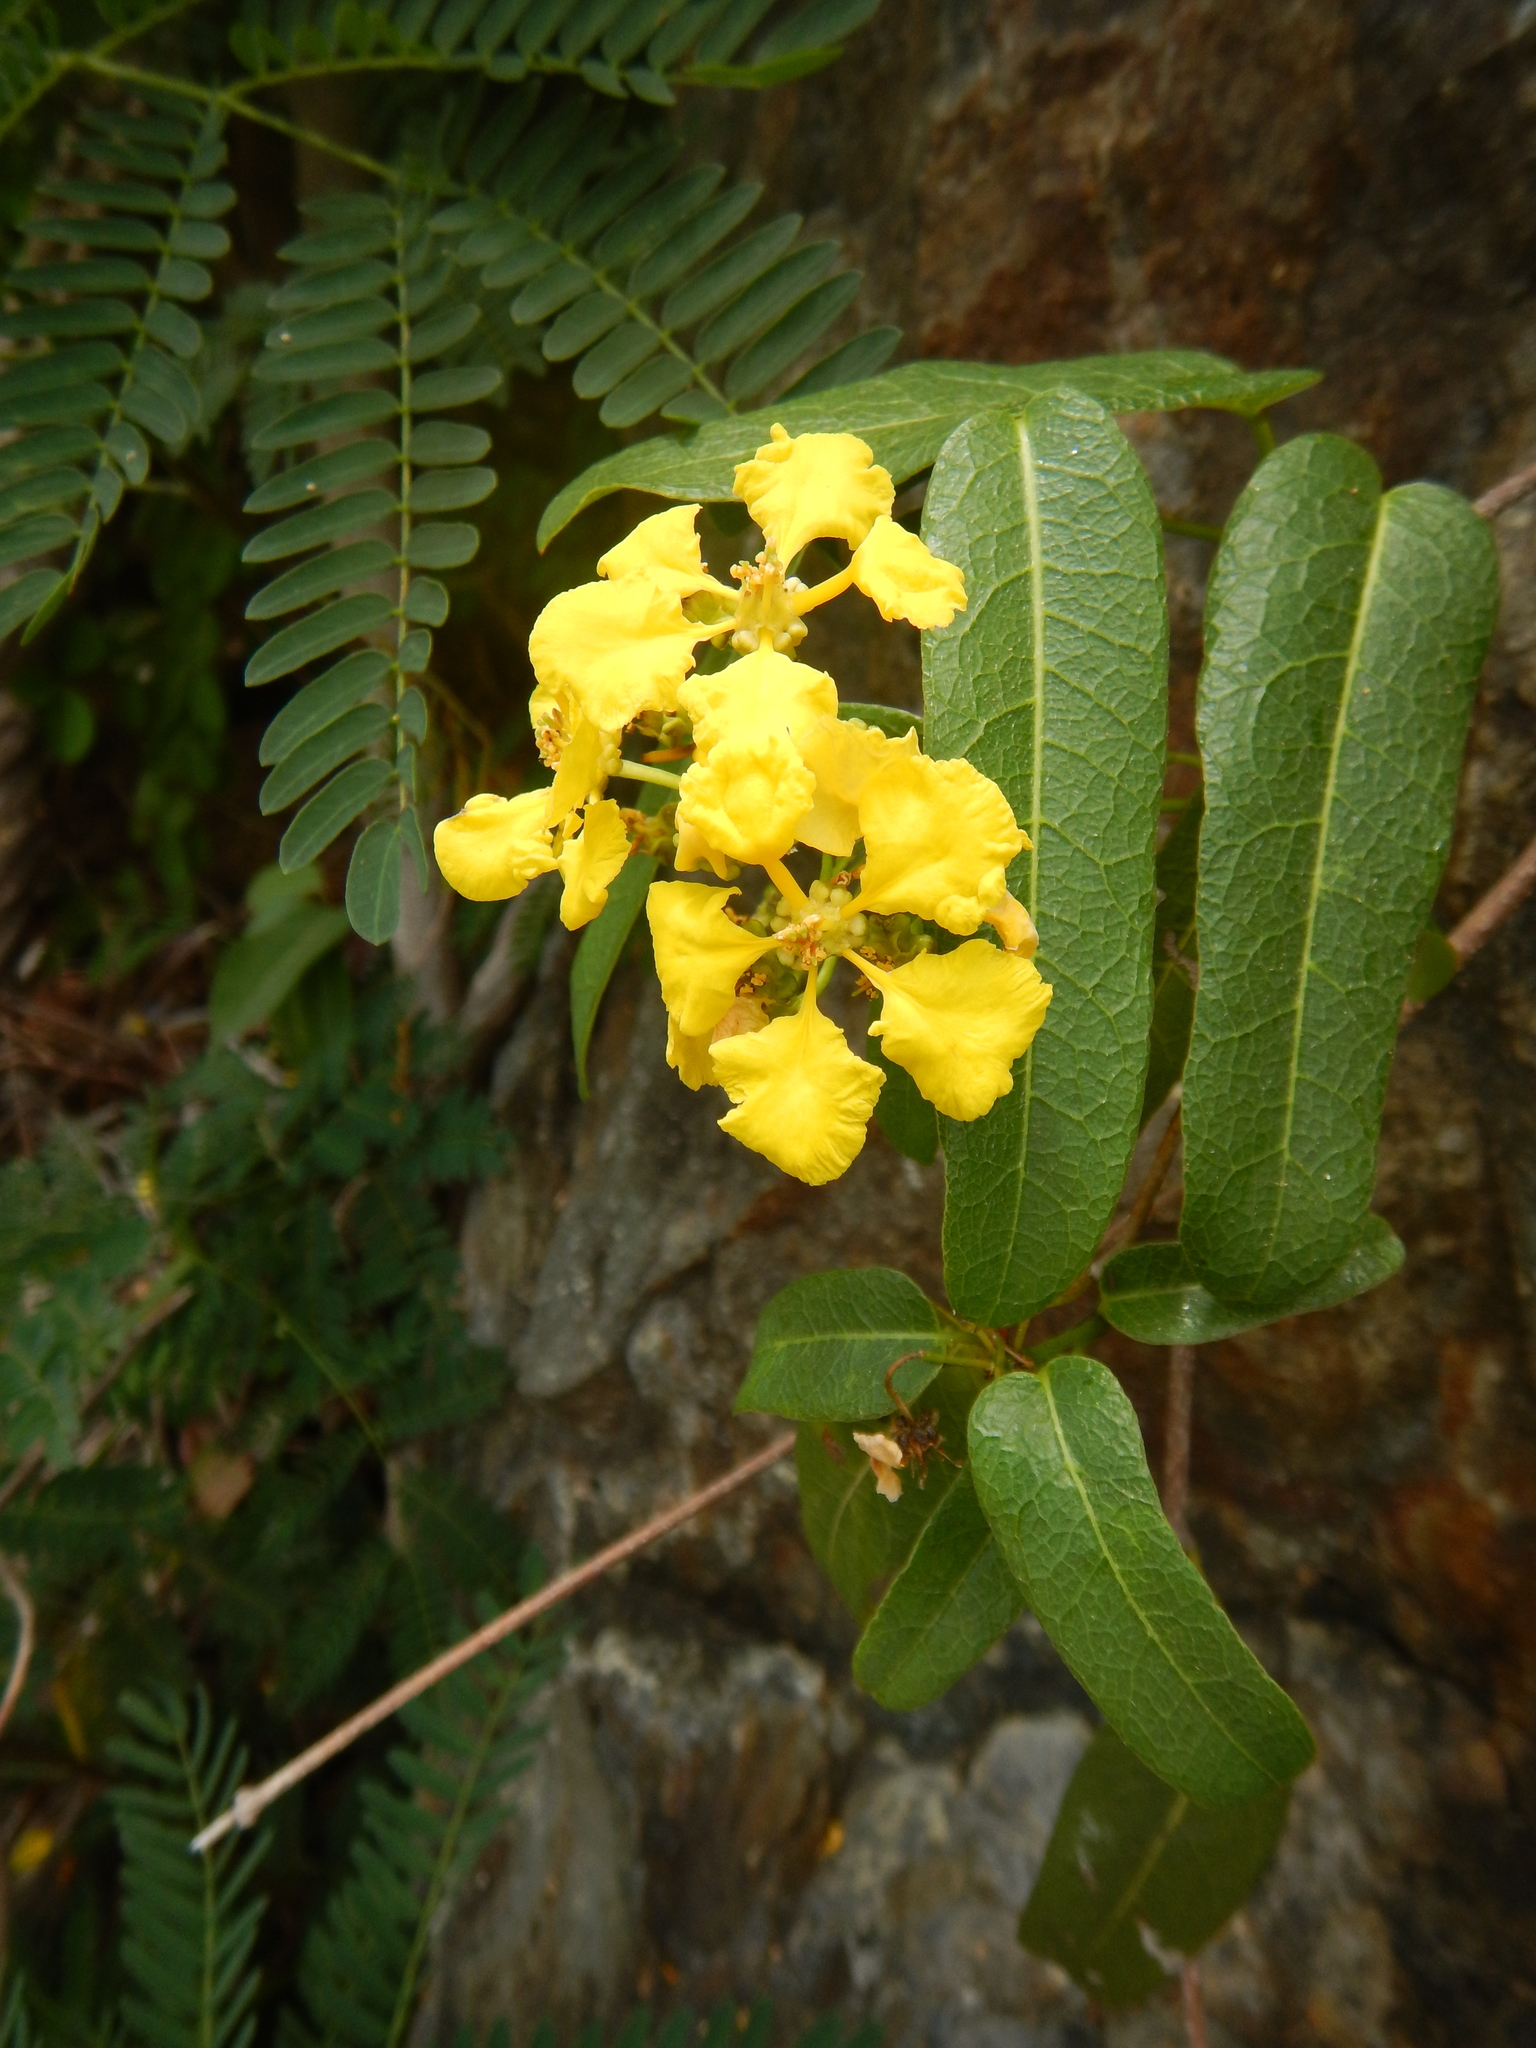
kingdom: Plantae
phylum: Tracheophyta
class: Magnoliopsida
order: Malpighiales
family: Malpighiaceae
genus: Stigmaphyllon
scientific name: Stigmaphyllon emarginatum
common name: Monarch amazonvine
